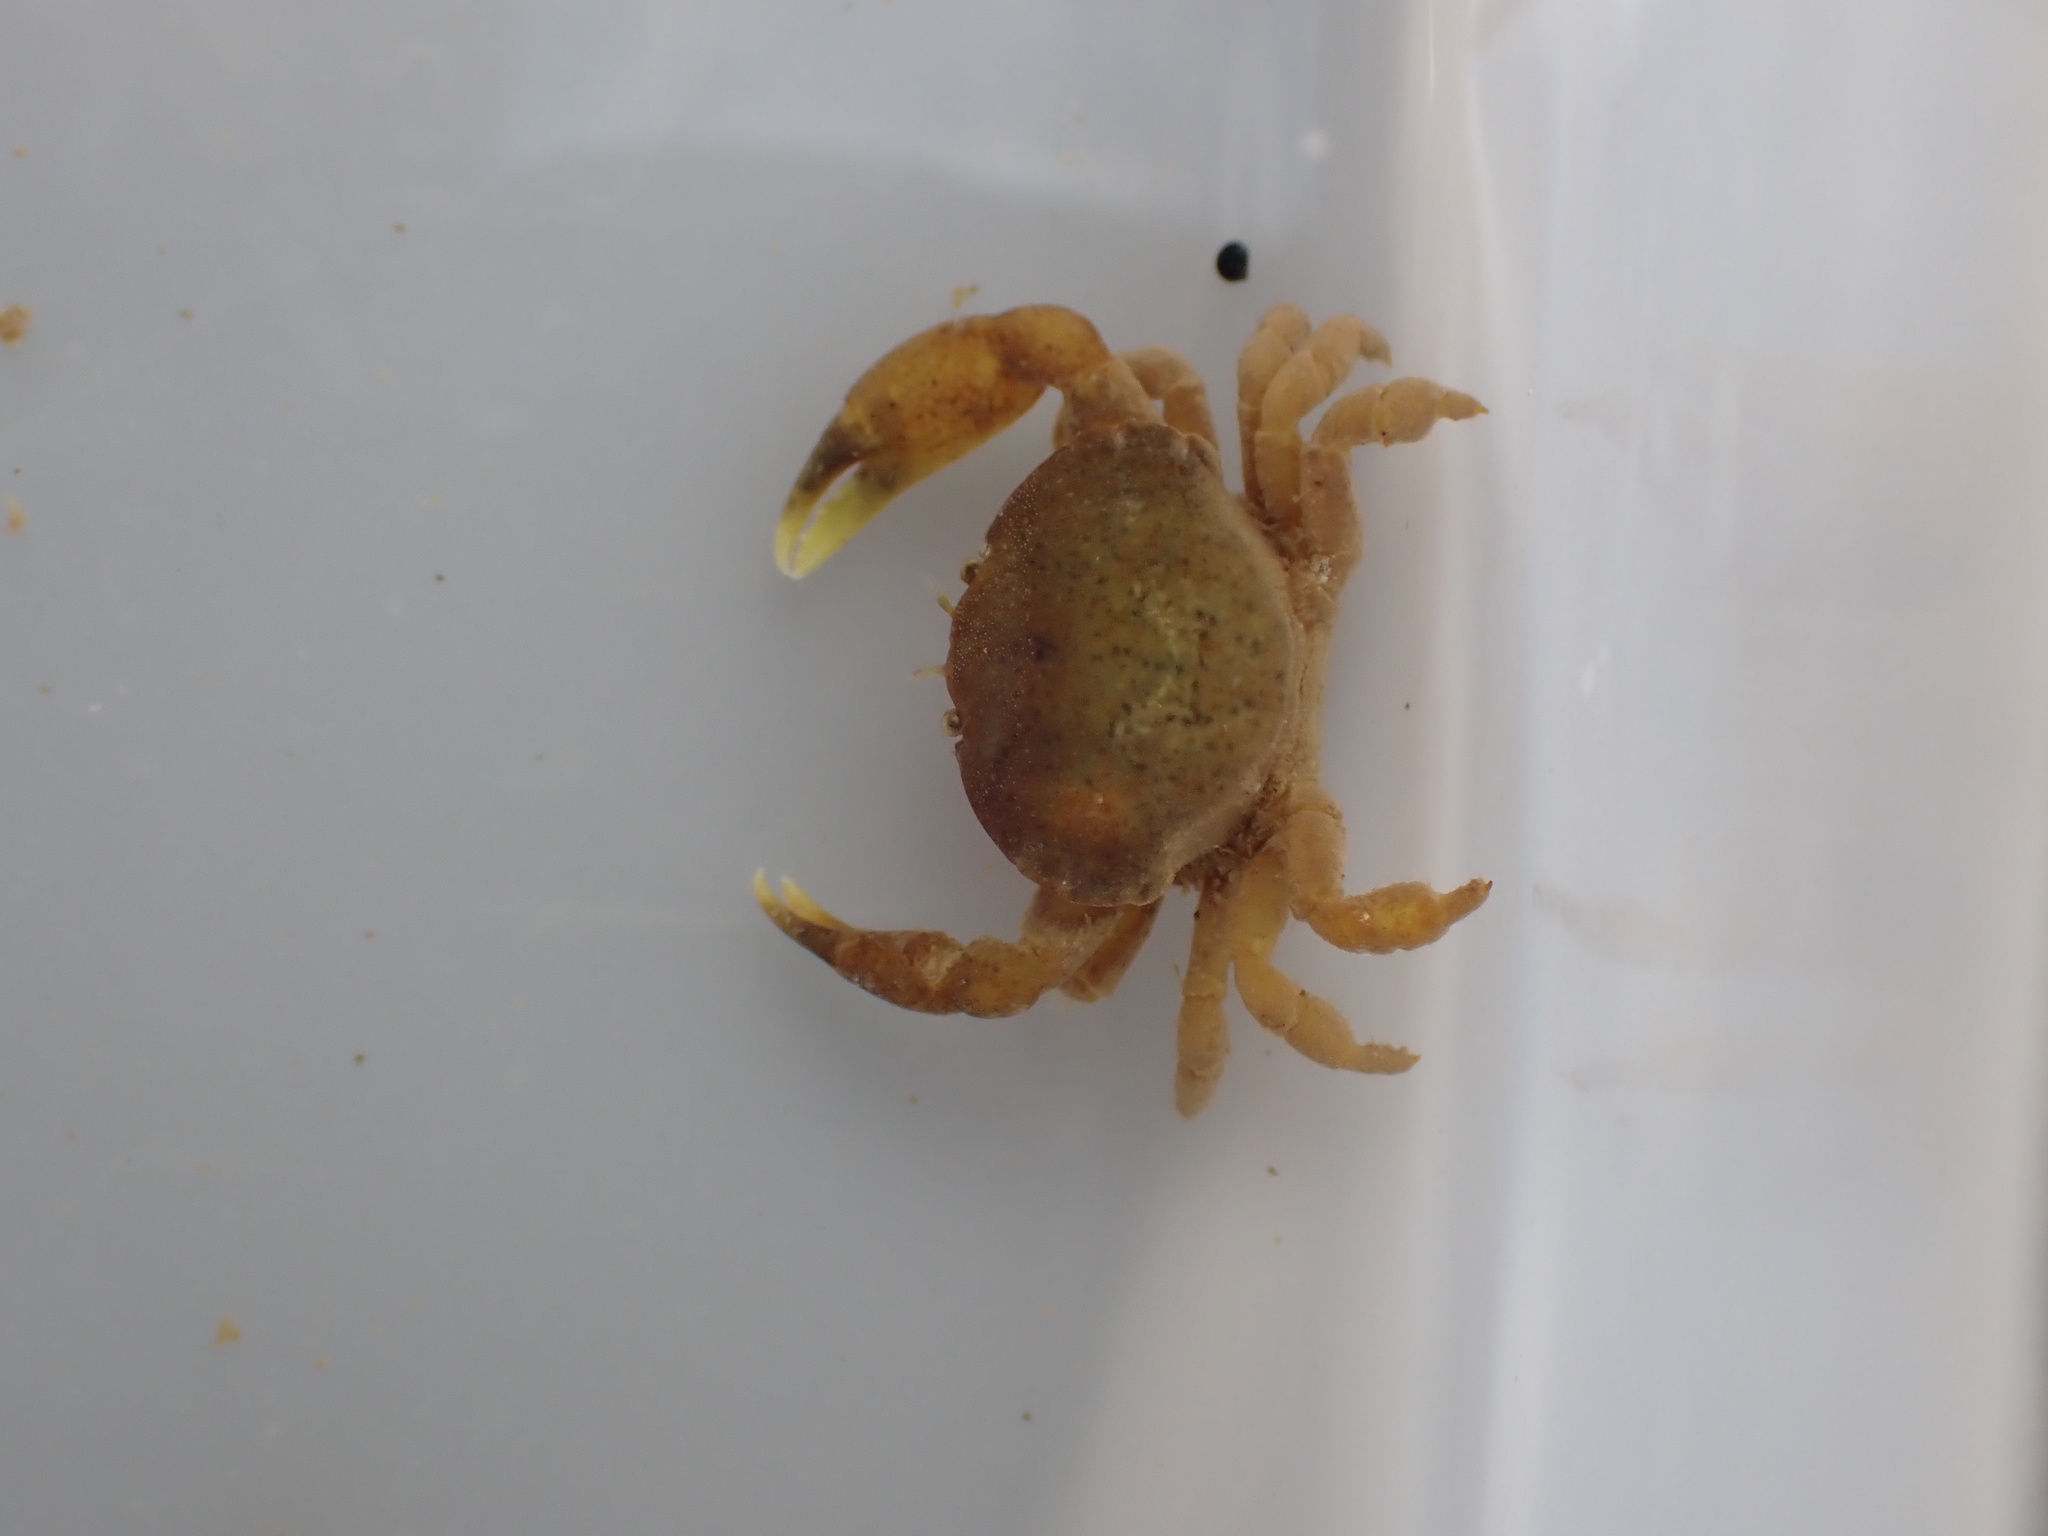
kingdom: Animalia
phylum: Arthropoda
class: Malacostraca
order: Decapoda
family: Heteroziidae
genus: Heterozius
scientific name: Heterozius rotundifrons
